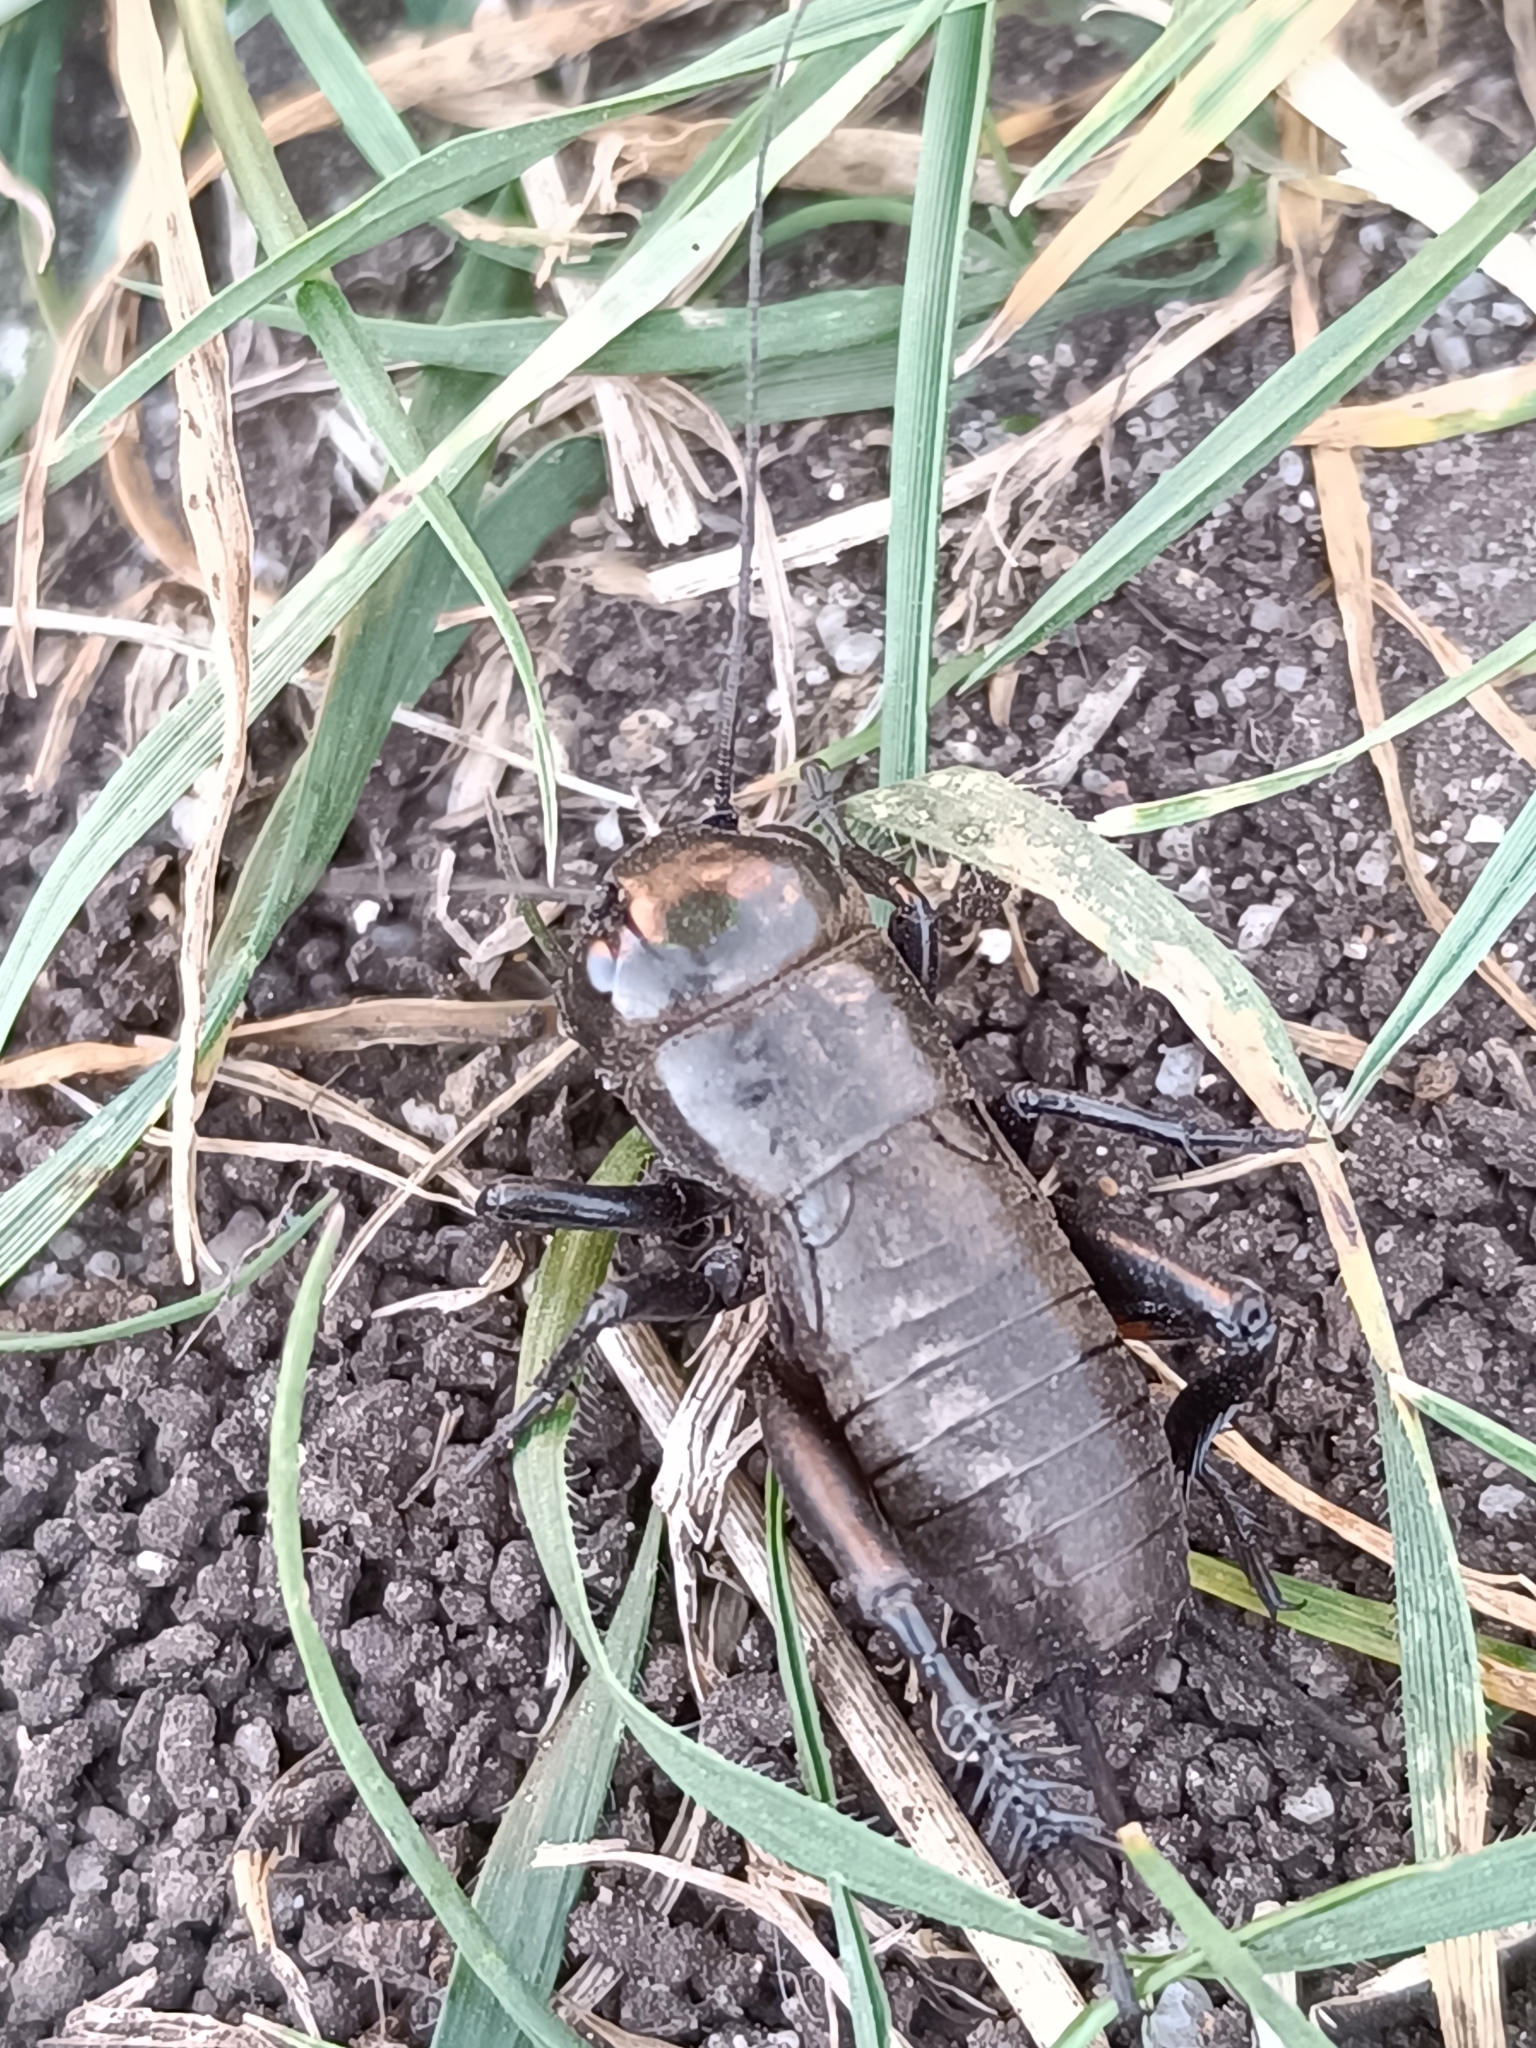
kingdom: Animalia
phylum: Arthropoda
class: Insecta
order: Orthoptera
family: Gryllidae
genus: Gryllus
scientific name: Gryllus campestris
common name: Field cricket
